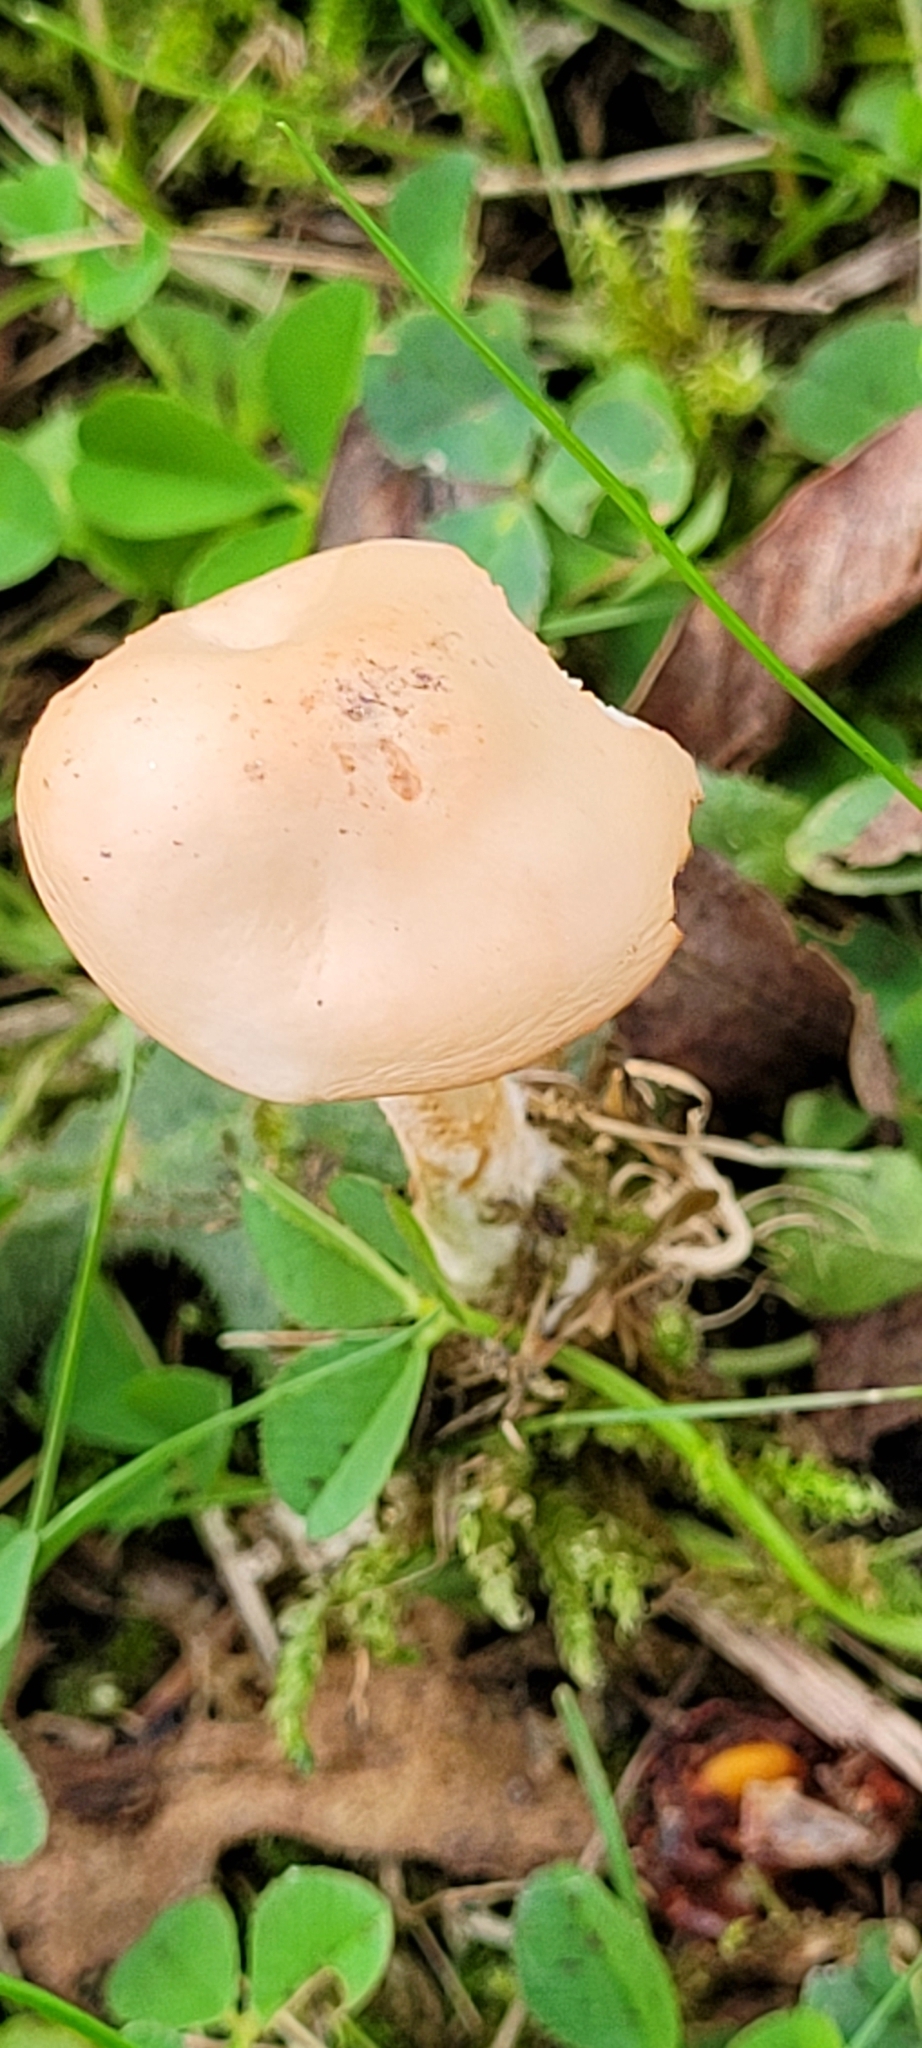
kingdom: Fungi
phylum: Basidiomycota
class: Agaricomycetes
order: Agaricales
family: Marasmiaceae
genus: Marasmius
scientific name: Marasmius oreades
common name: Fairy ring champignon
